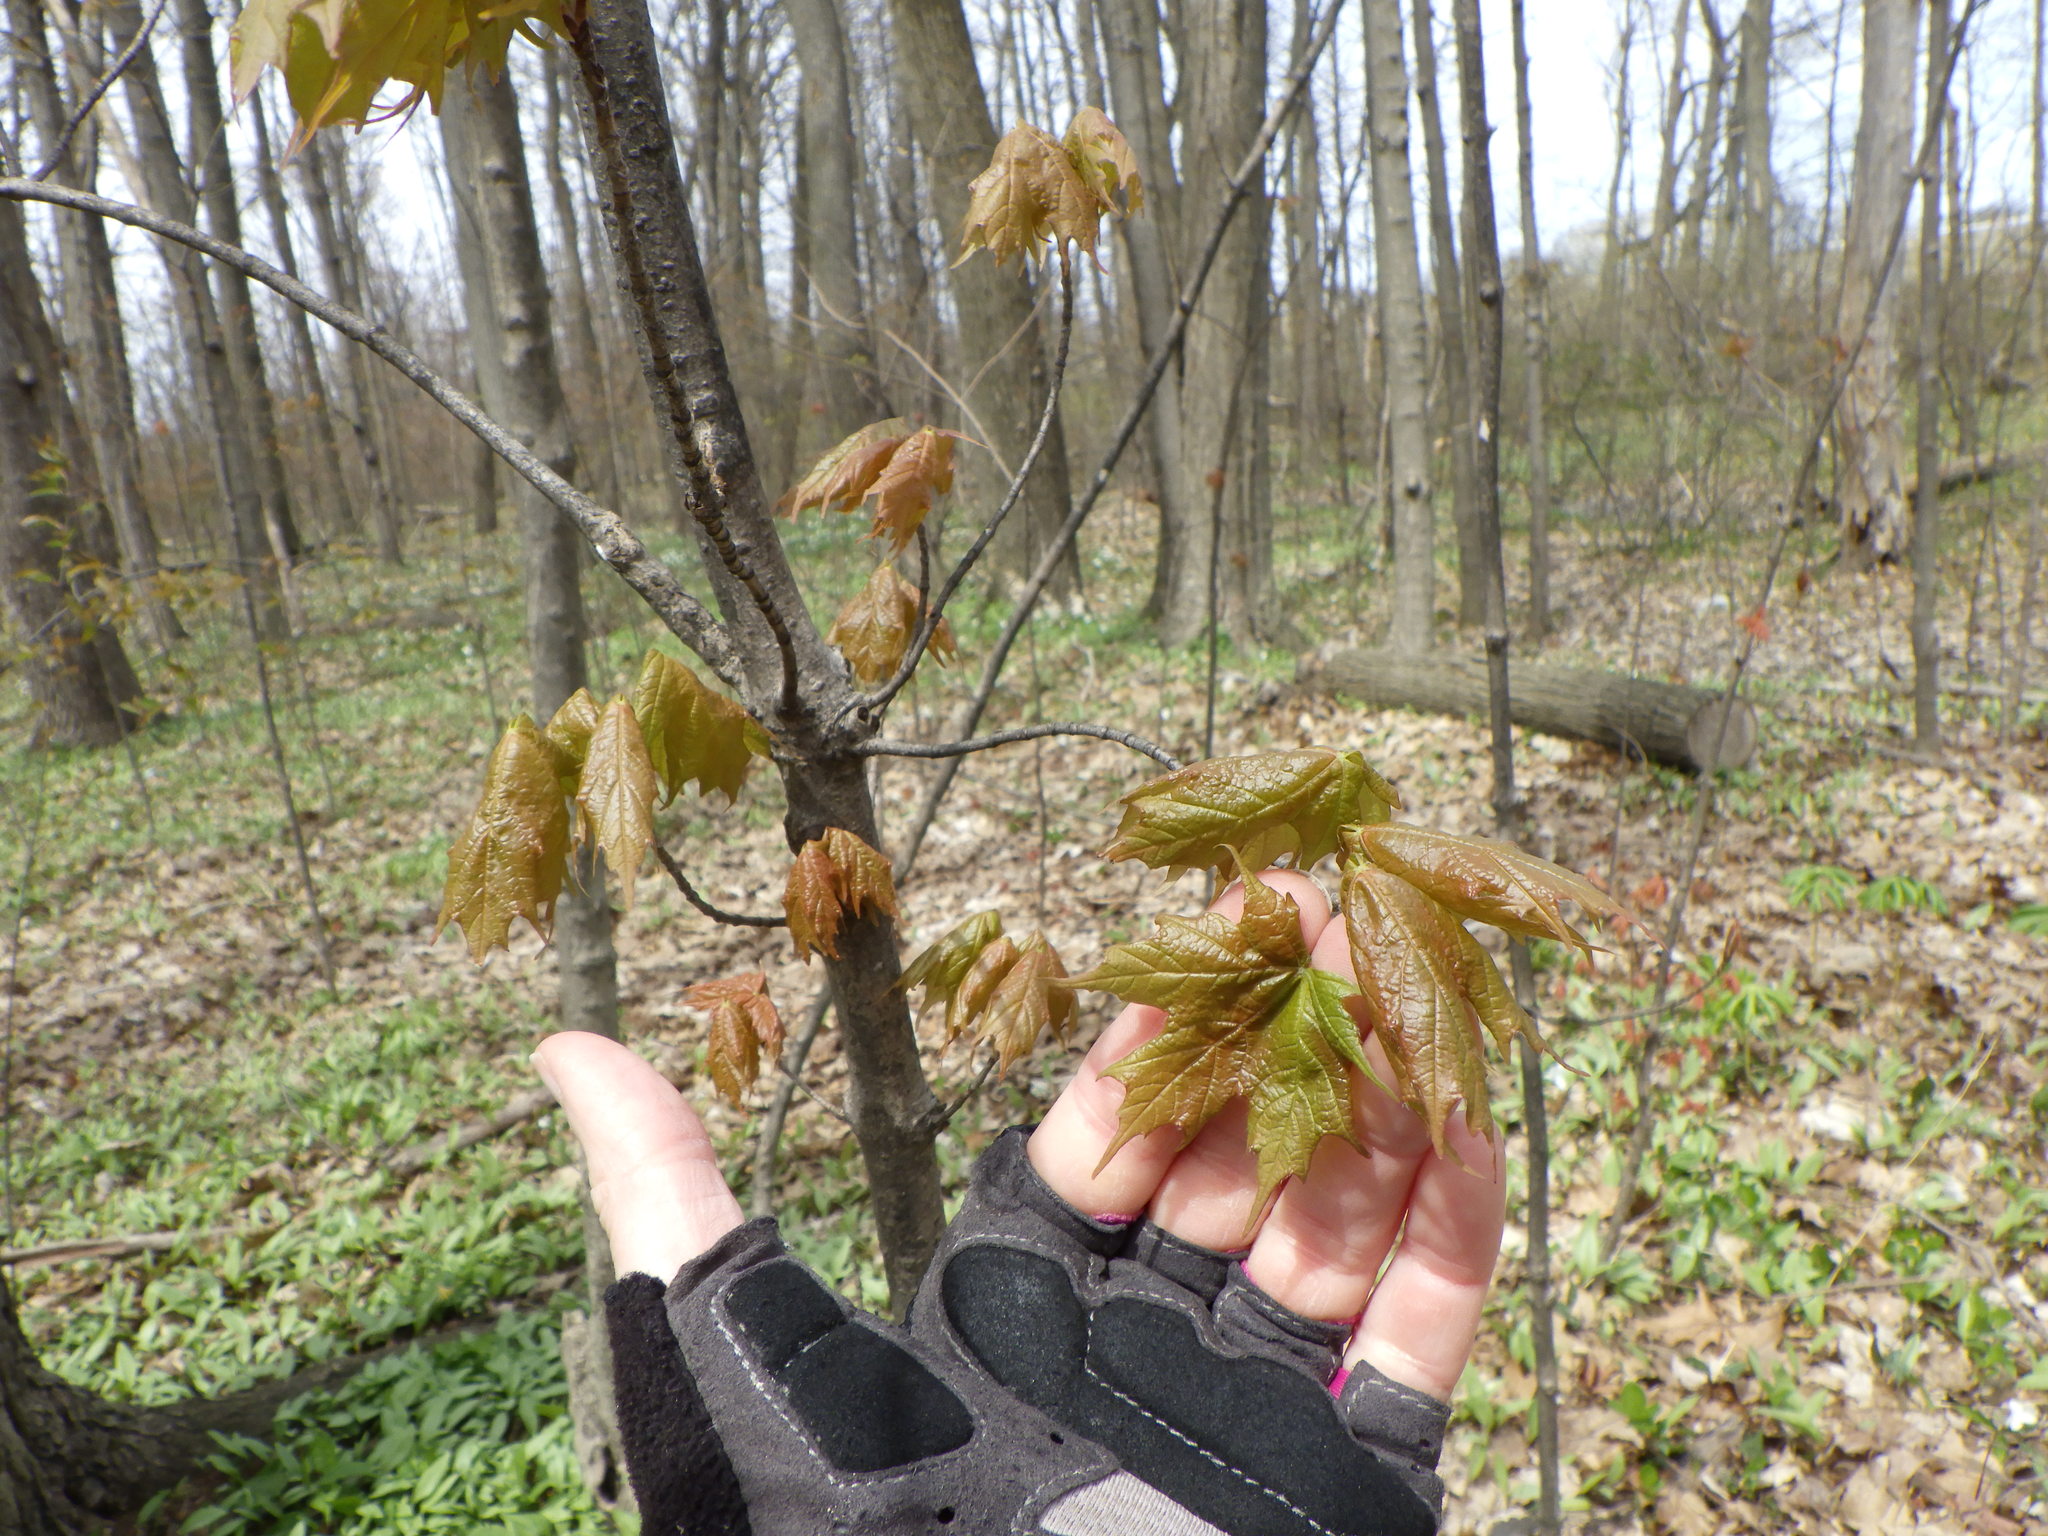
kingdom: Plantae
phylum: Tracheophyta
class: Magnoliopsida
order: Sapindales
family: Sapindaceae
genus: Acer
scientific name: Acer saccharum
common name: Sugar maple
